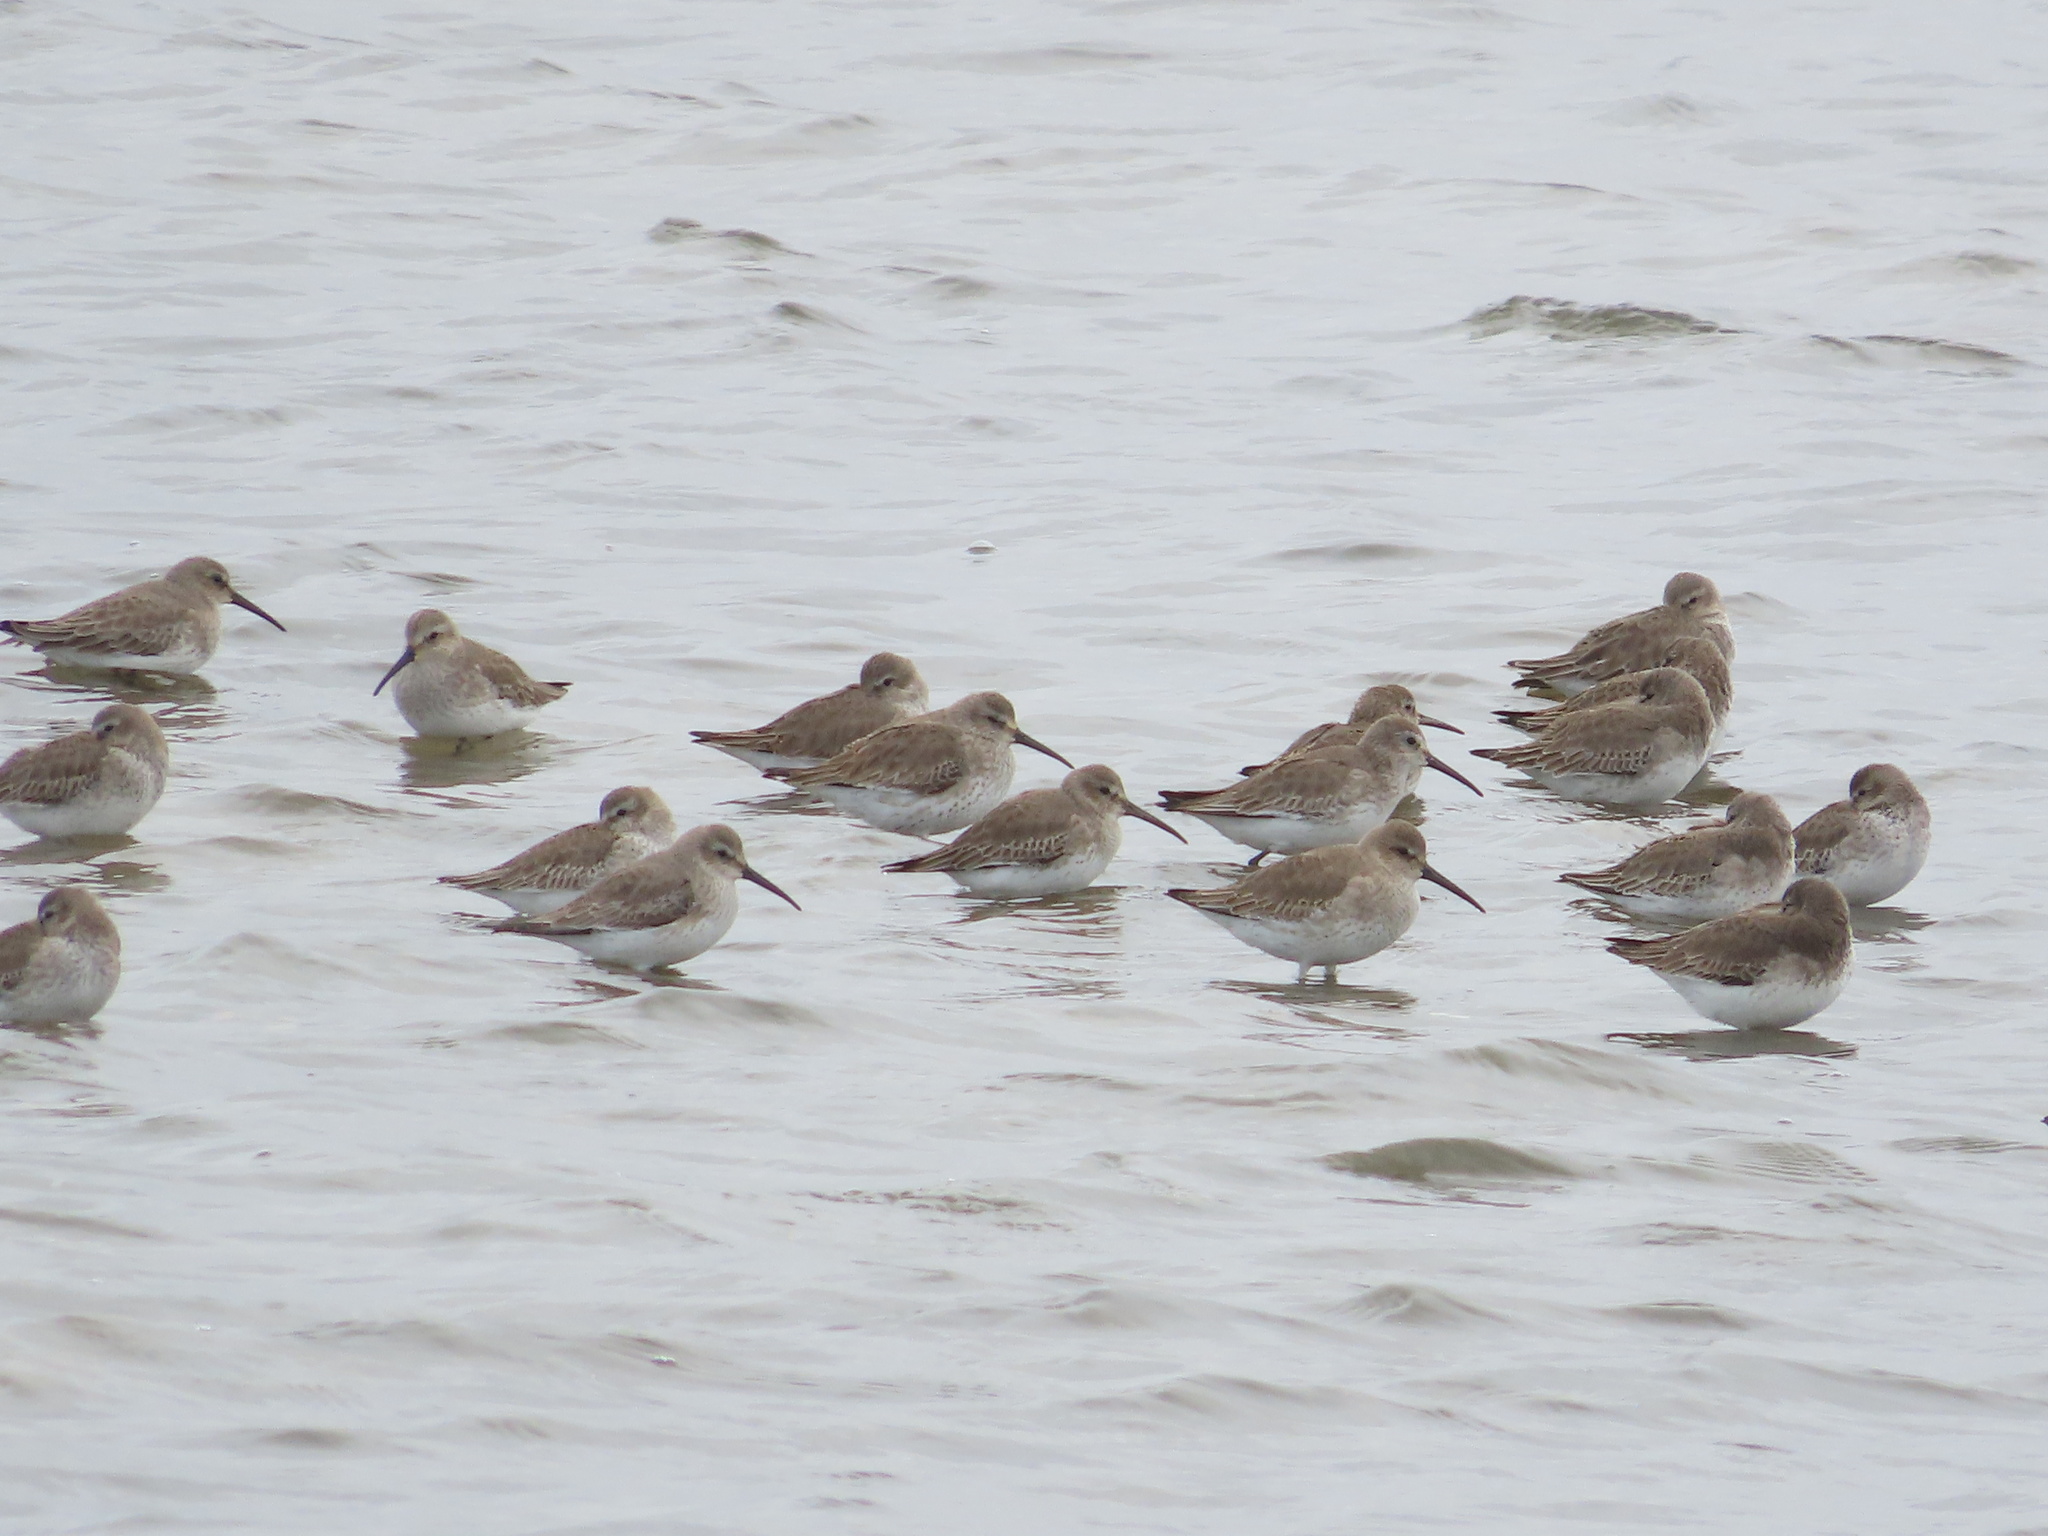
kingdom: Animalia
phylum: Chordata
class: Aves
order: Charadriiformes
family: Scolopacidae
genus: Calidris
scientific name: Calidris alpina
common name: Dunlin
